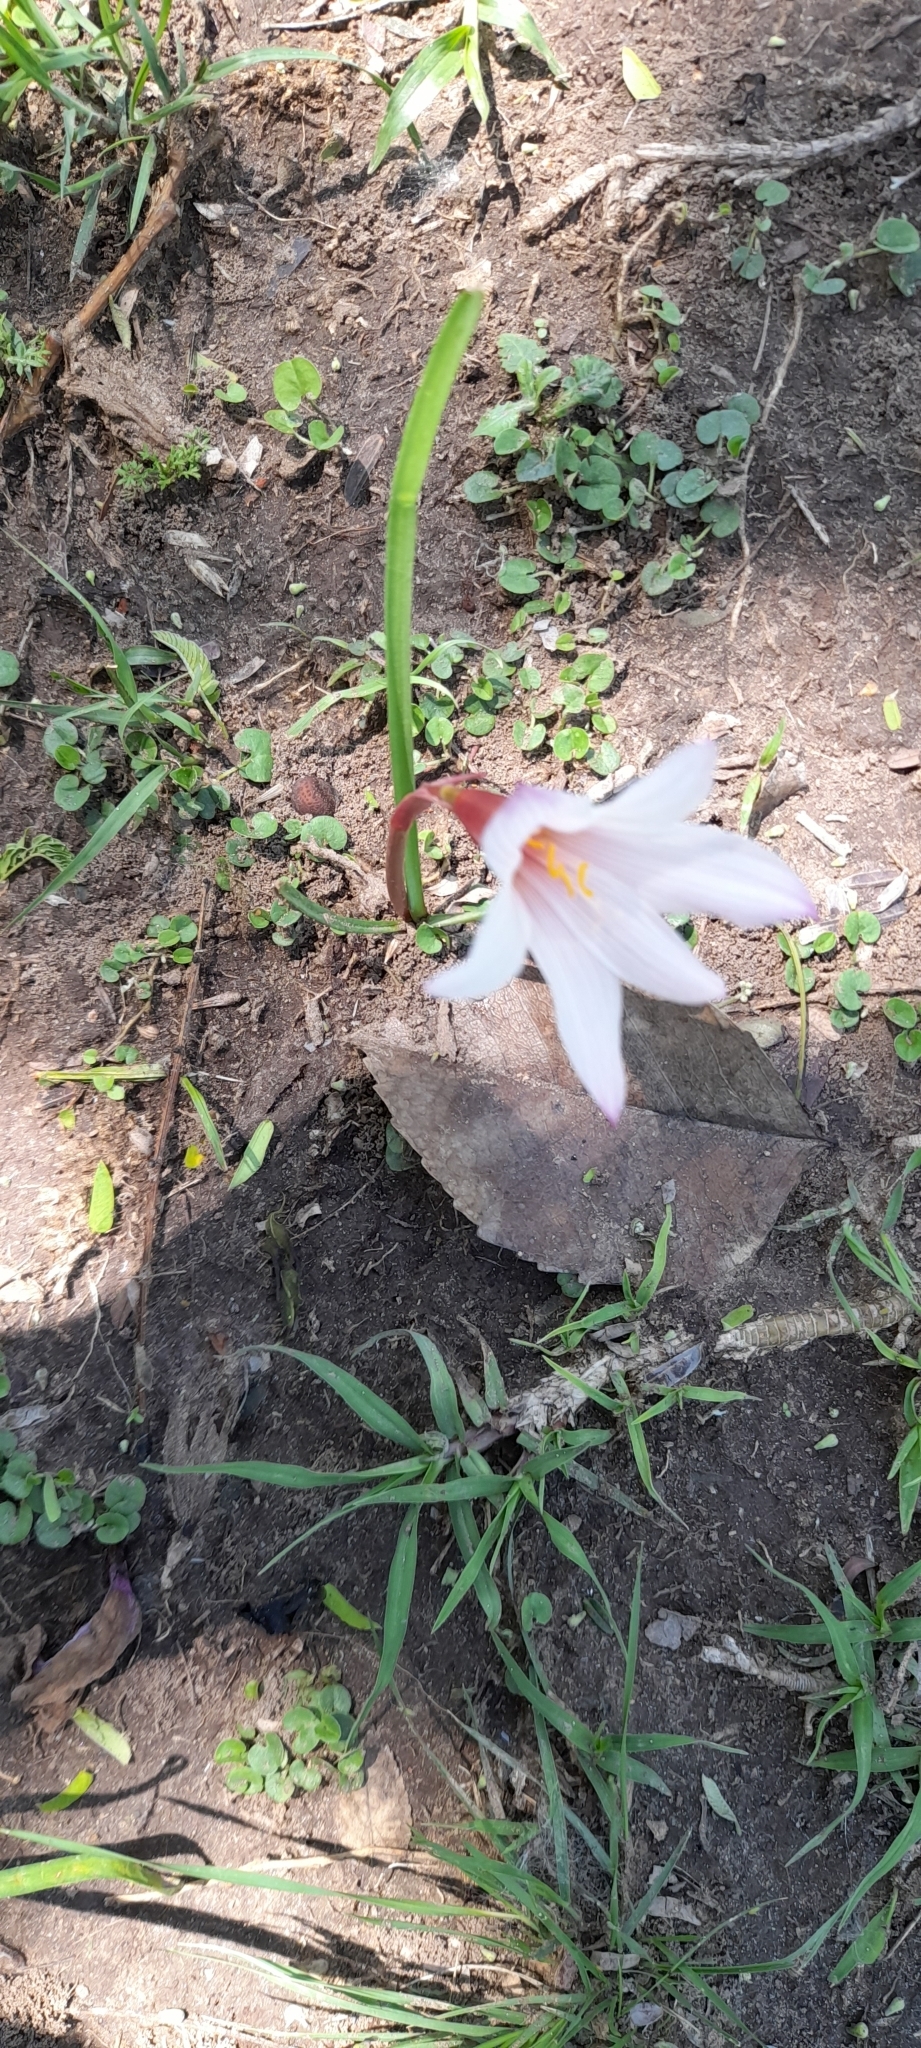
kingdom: Plantae
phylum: Tracheophyta
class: Liliopsida
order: Asparagales
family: Amaryllidaceae
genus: Zephyranthes
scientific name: Zephyranthes martinezii
